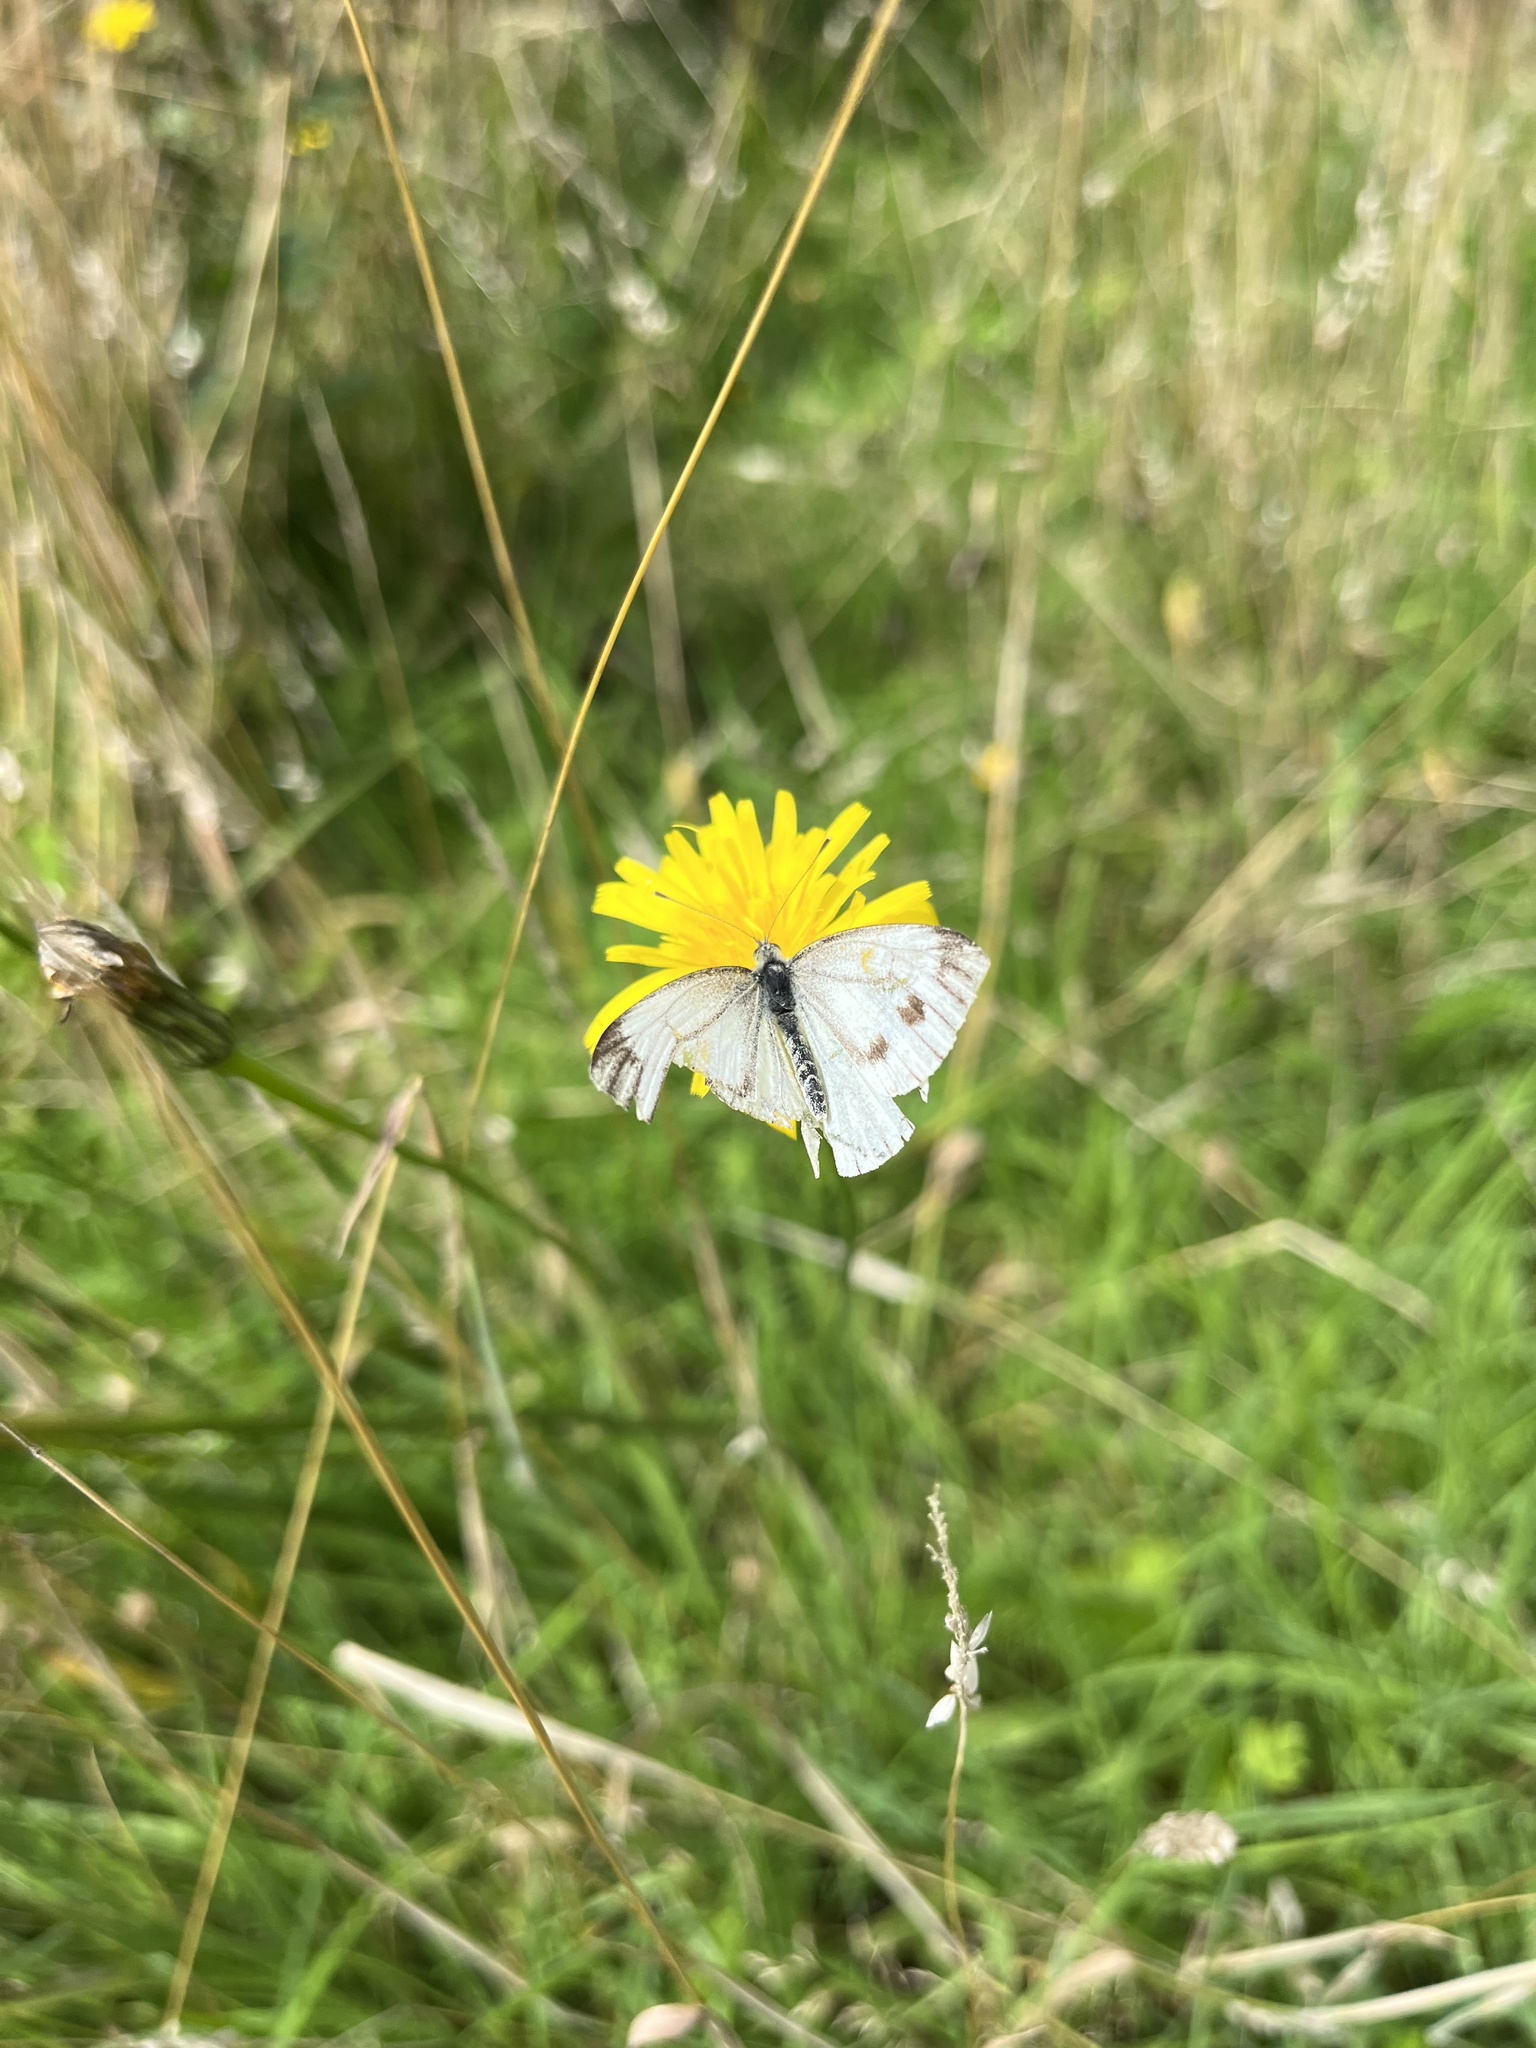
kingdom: Animalia
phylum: Arthropoda
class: Insecta
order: Lepidoptera
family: Pieridae
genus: Pieris
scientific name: Pieris napi
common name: Green-veined white
